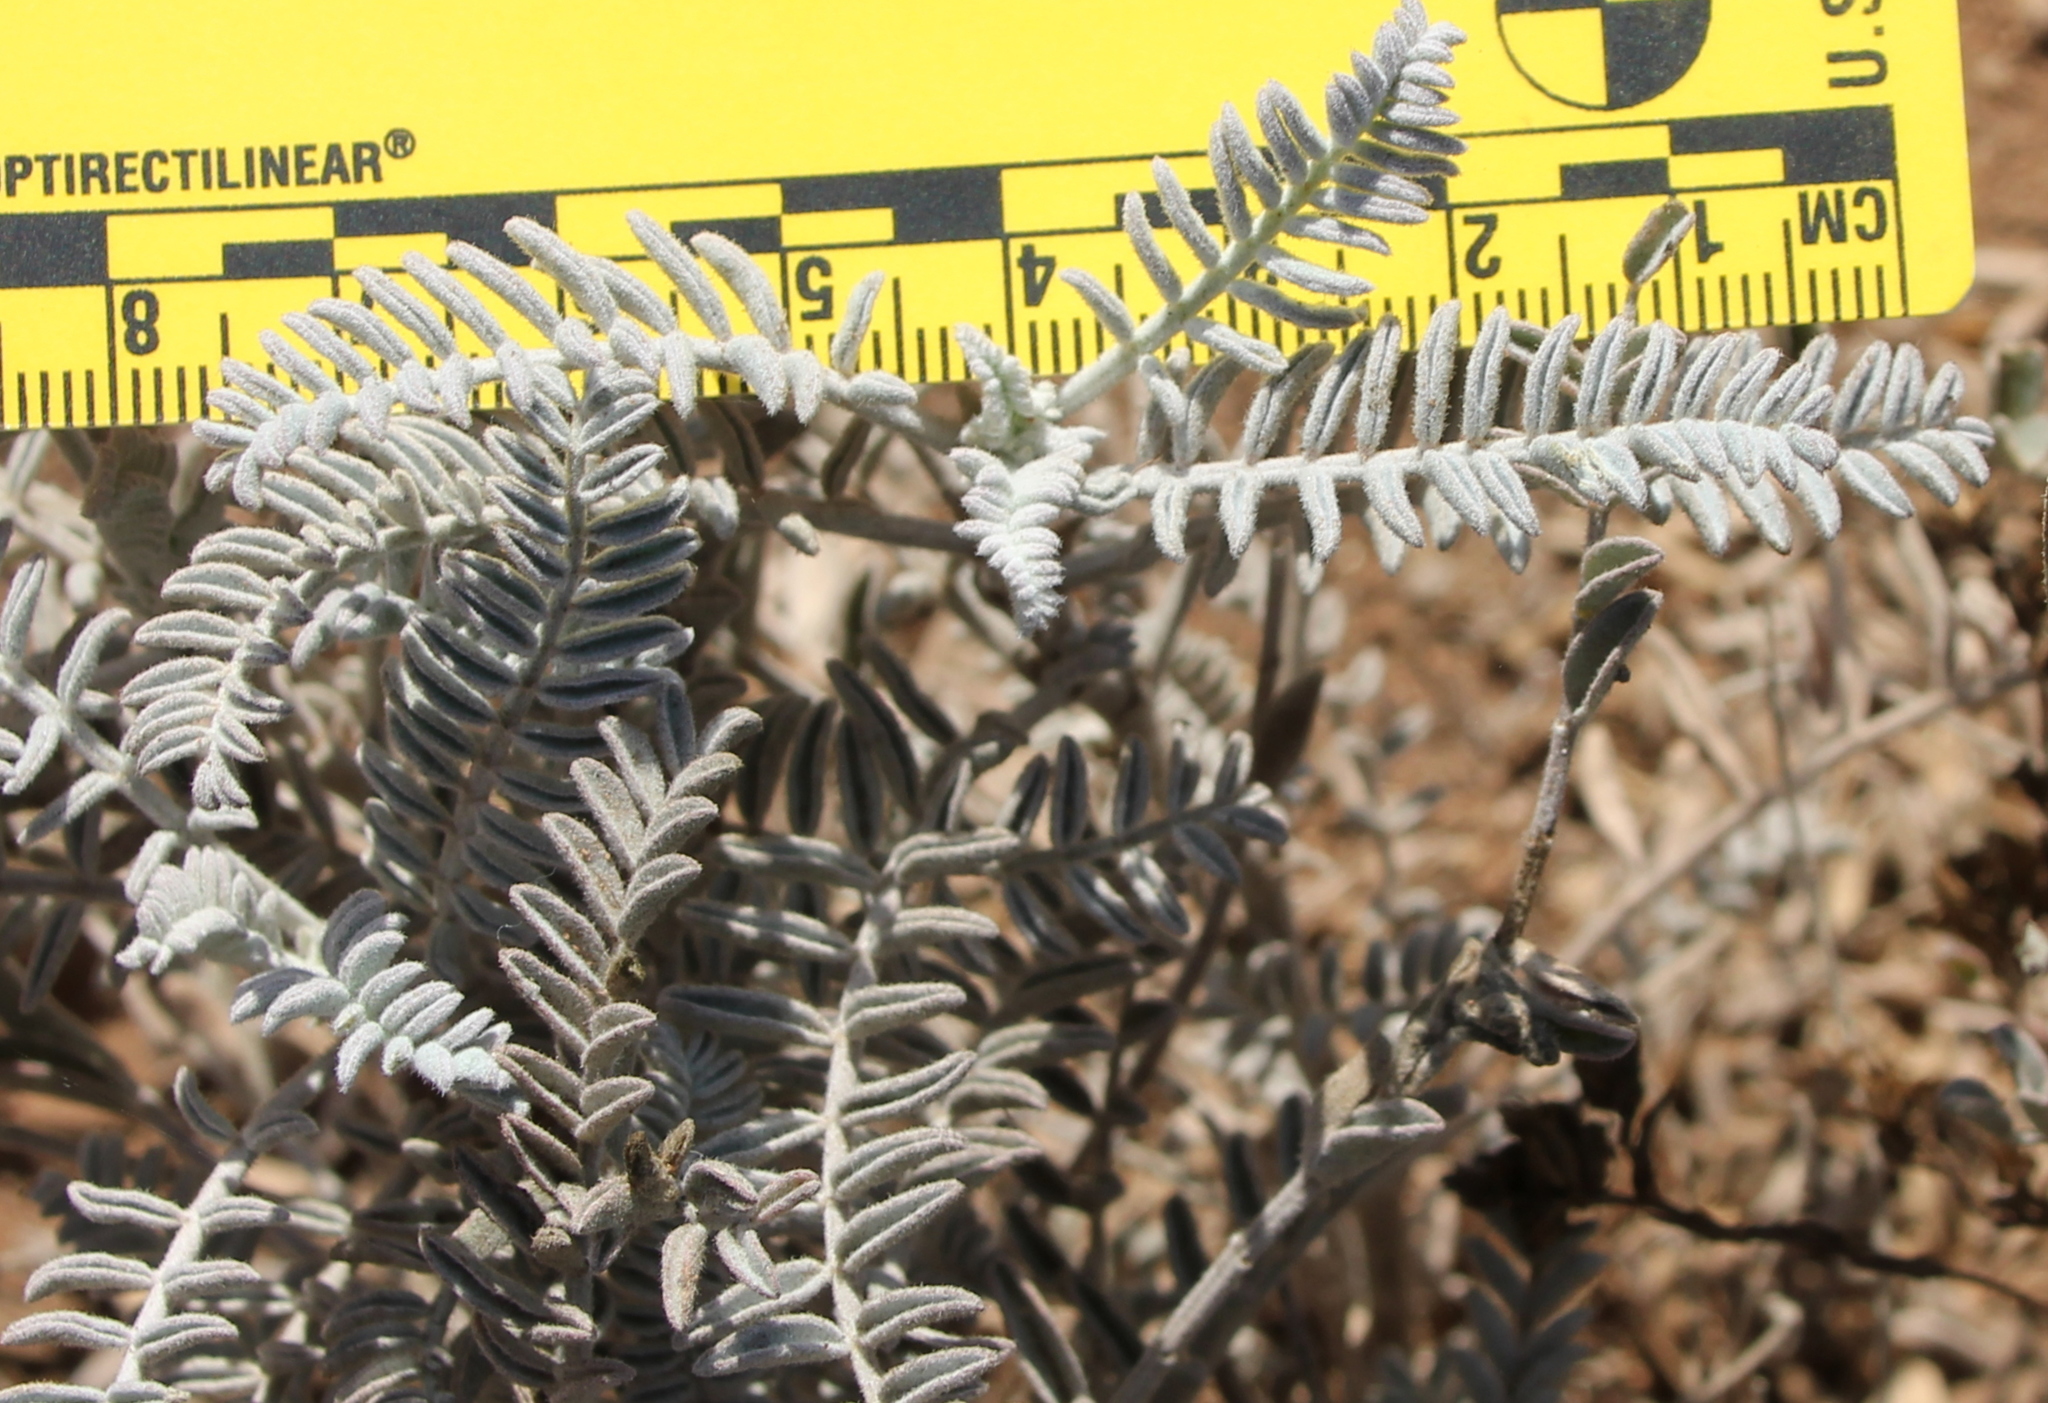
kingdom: Plantae
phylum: Tracheophyta
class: Magnoliopsida
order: Fabales
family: Fabaceae
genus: Astragalus
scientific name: Astragalus trichopodus
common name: Santa barbara milk-vetch
